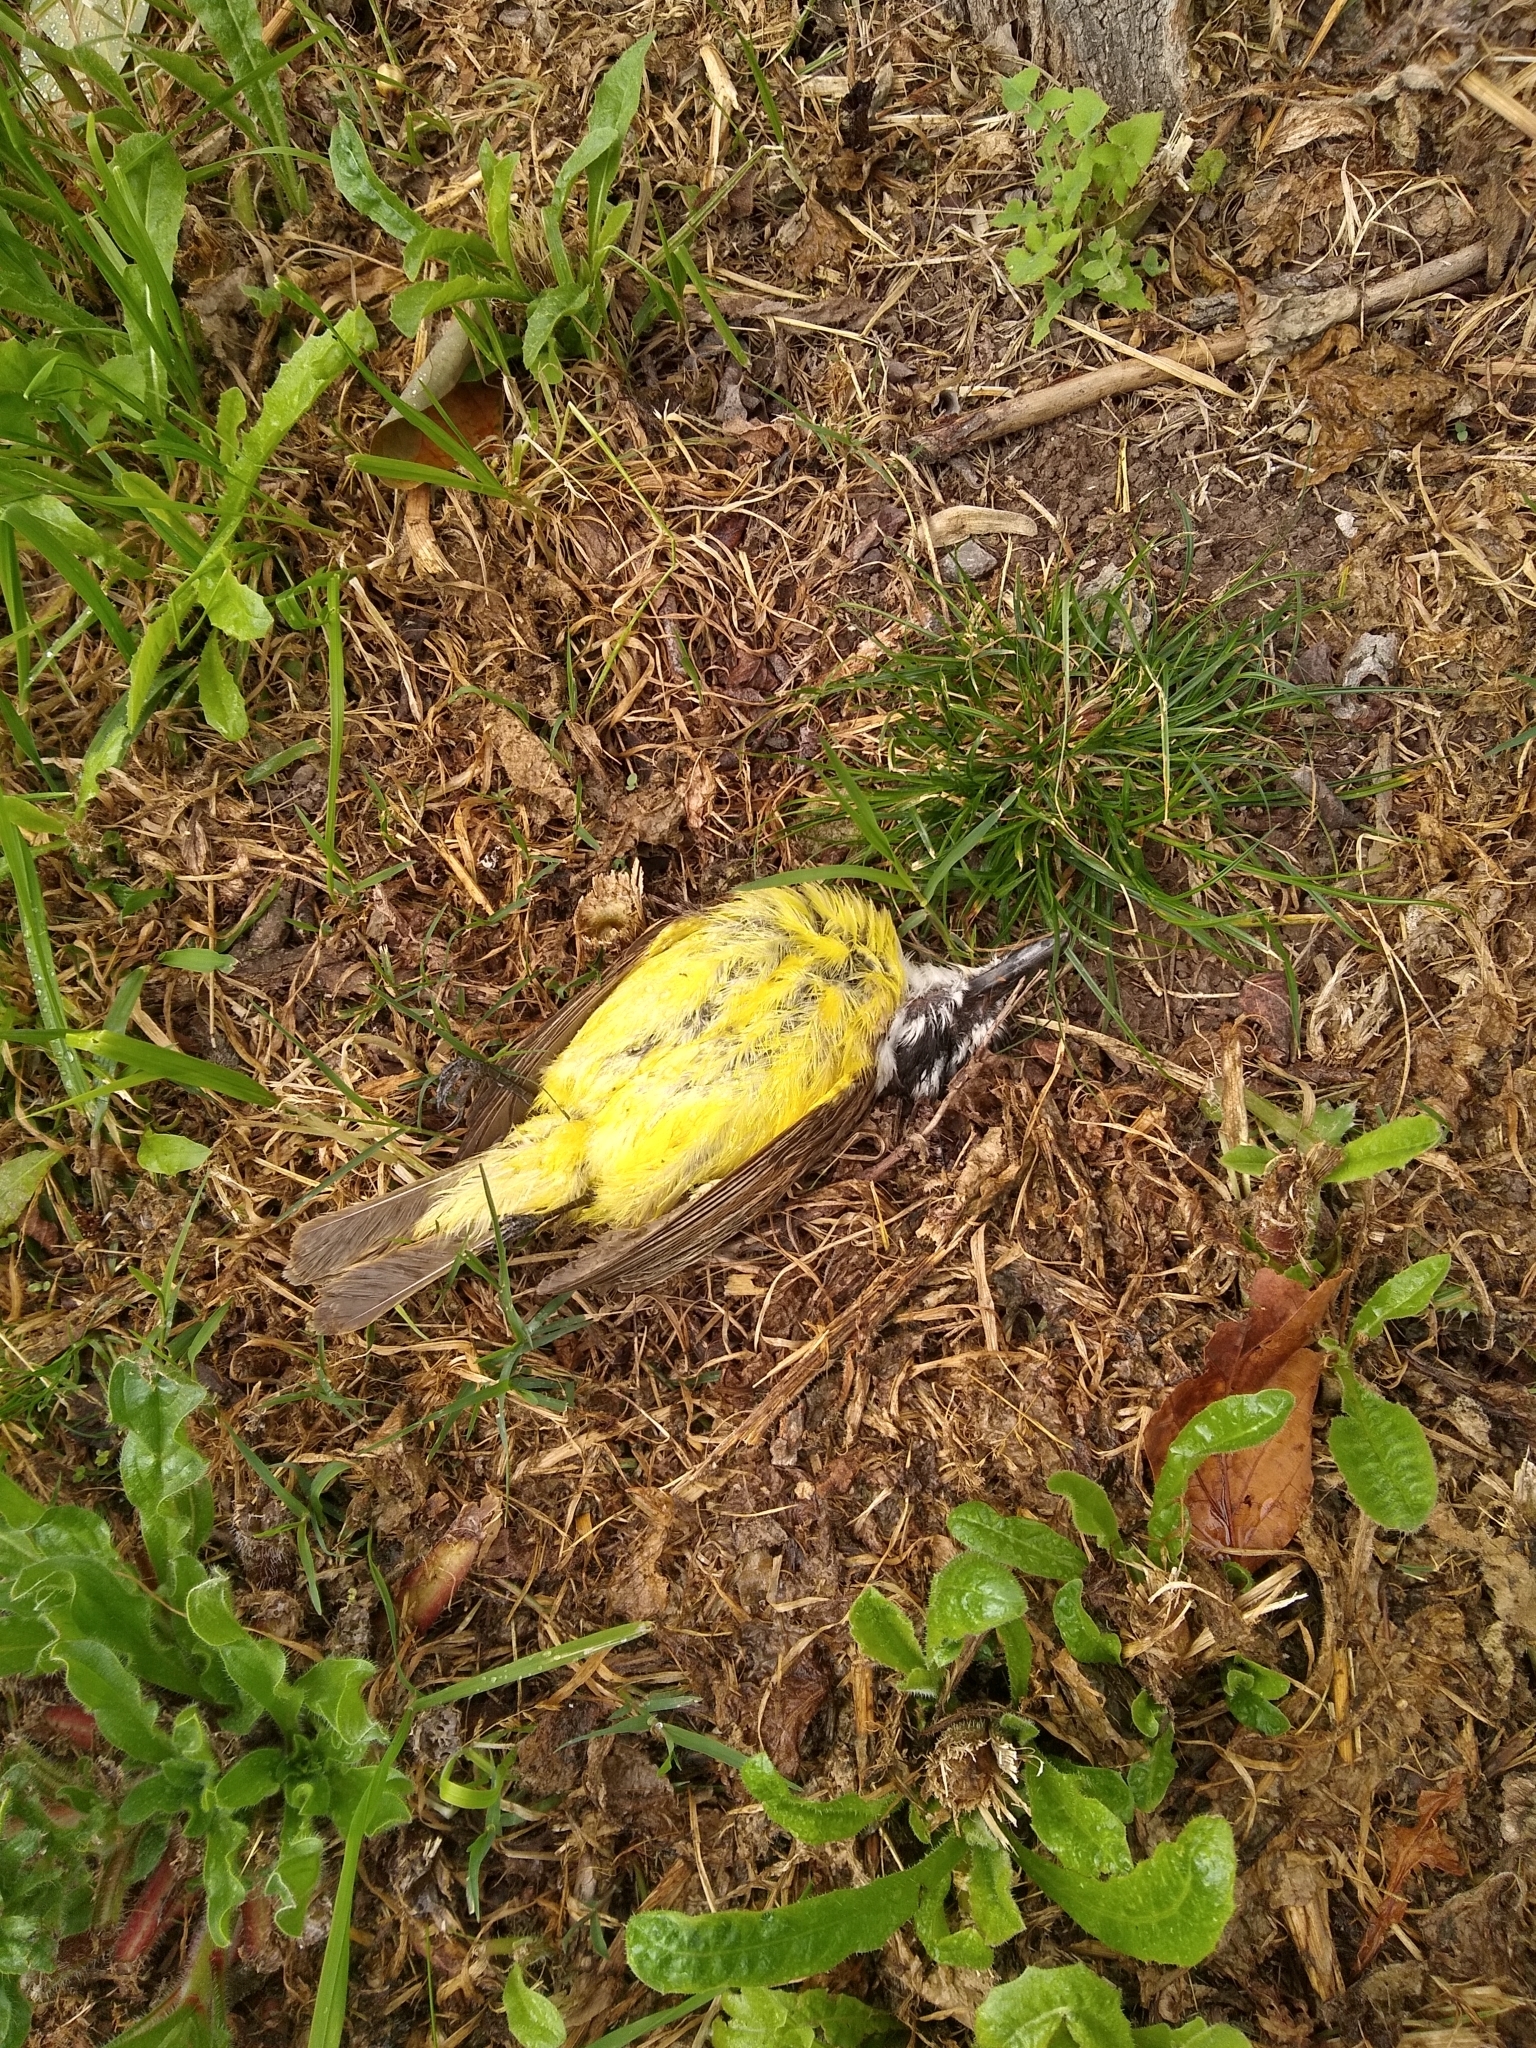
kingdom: Animalia
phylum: Chordata
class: Aves
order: Passeriformes
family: Tyrannidae
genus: Pitangus
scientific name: Pitangus sulphuratus
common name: Great kiskadee
